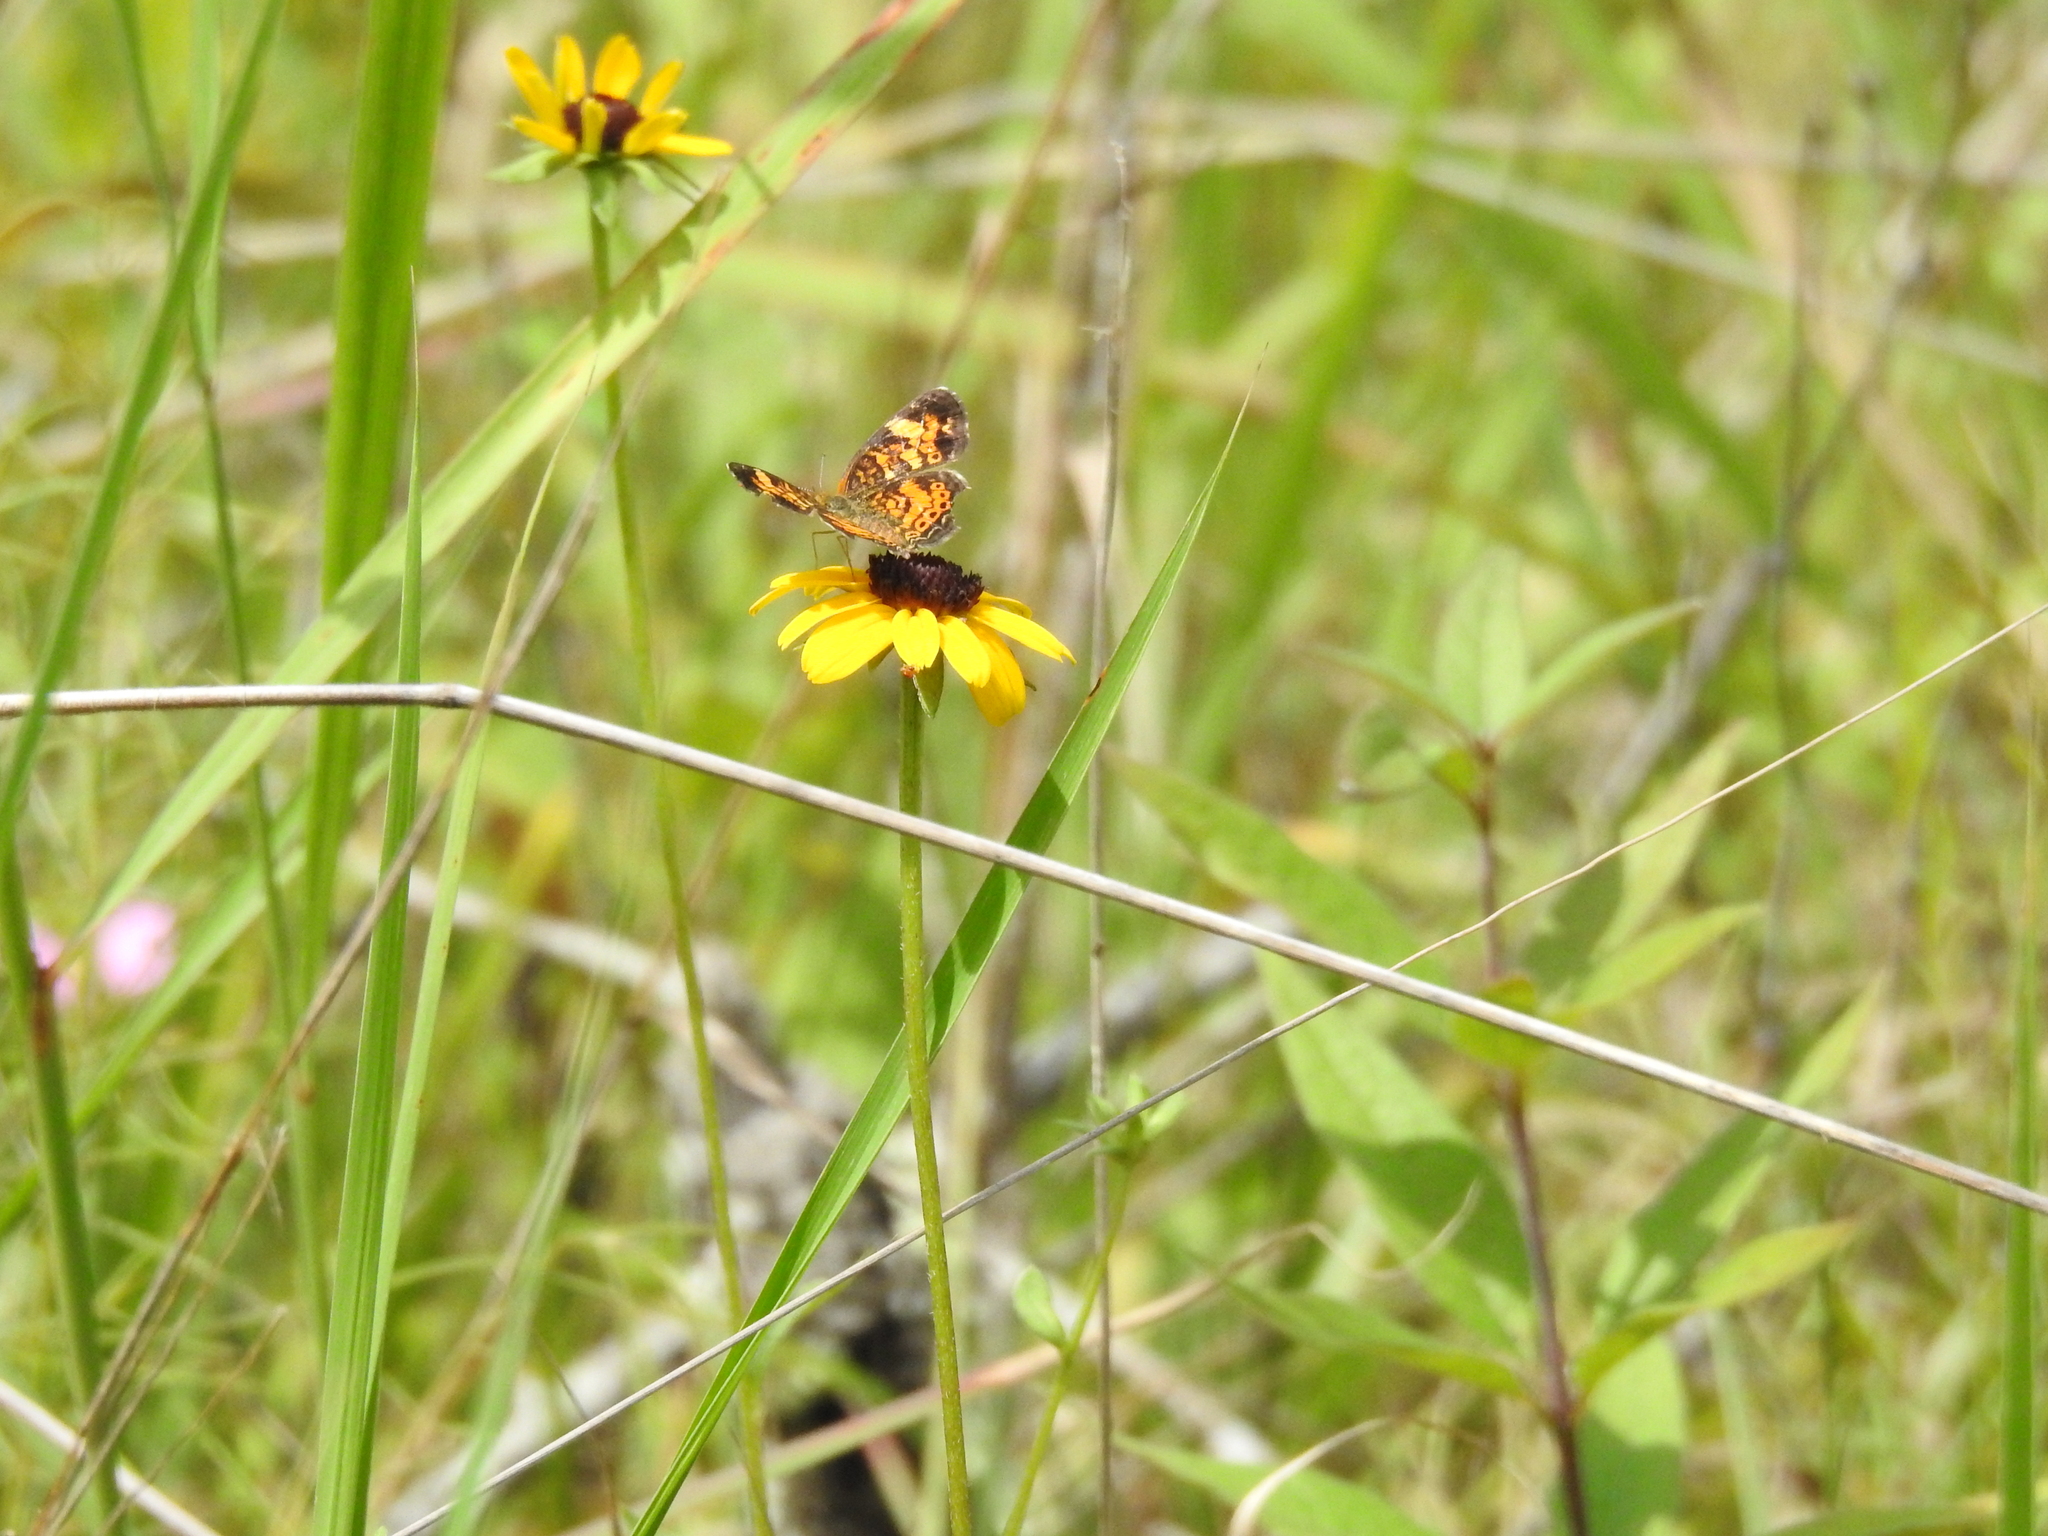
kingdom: Animalia
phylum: Arthropoda
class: Insecta
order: Lepidoptera
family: Nymphalidae
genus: Phyciodes
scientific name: Phyciodes tharos
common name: Pearl crescent
